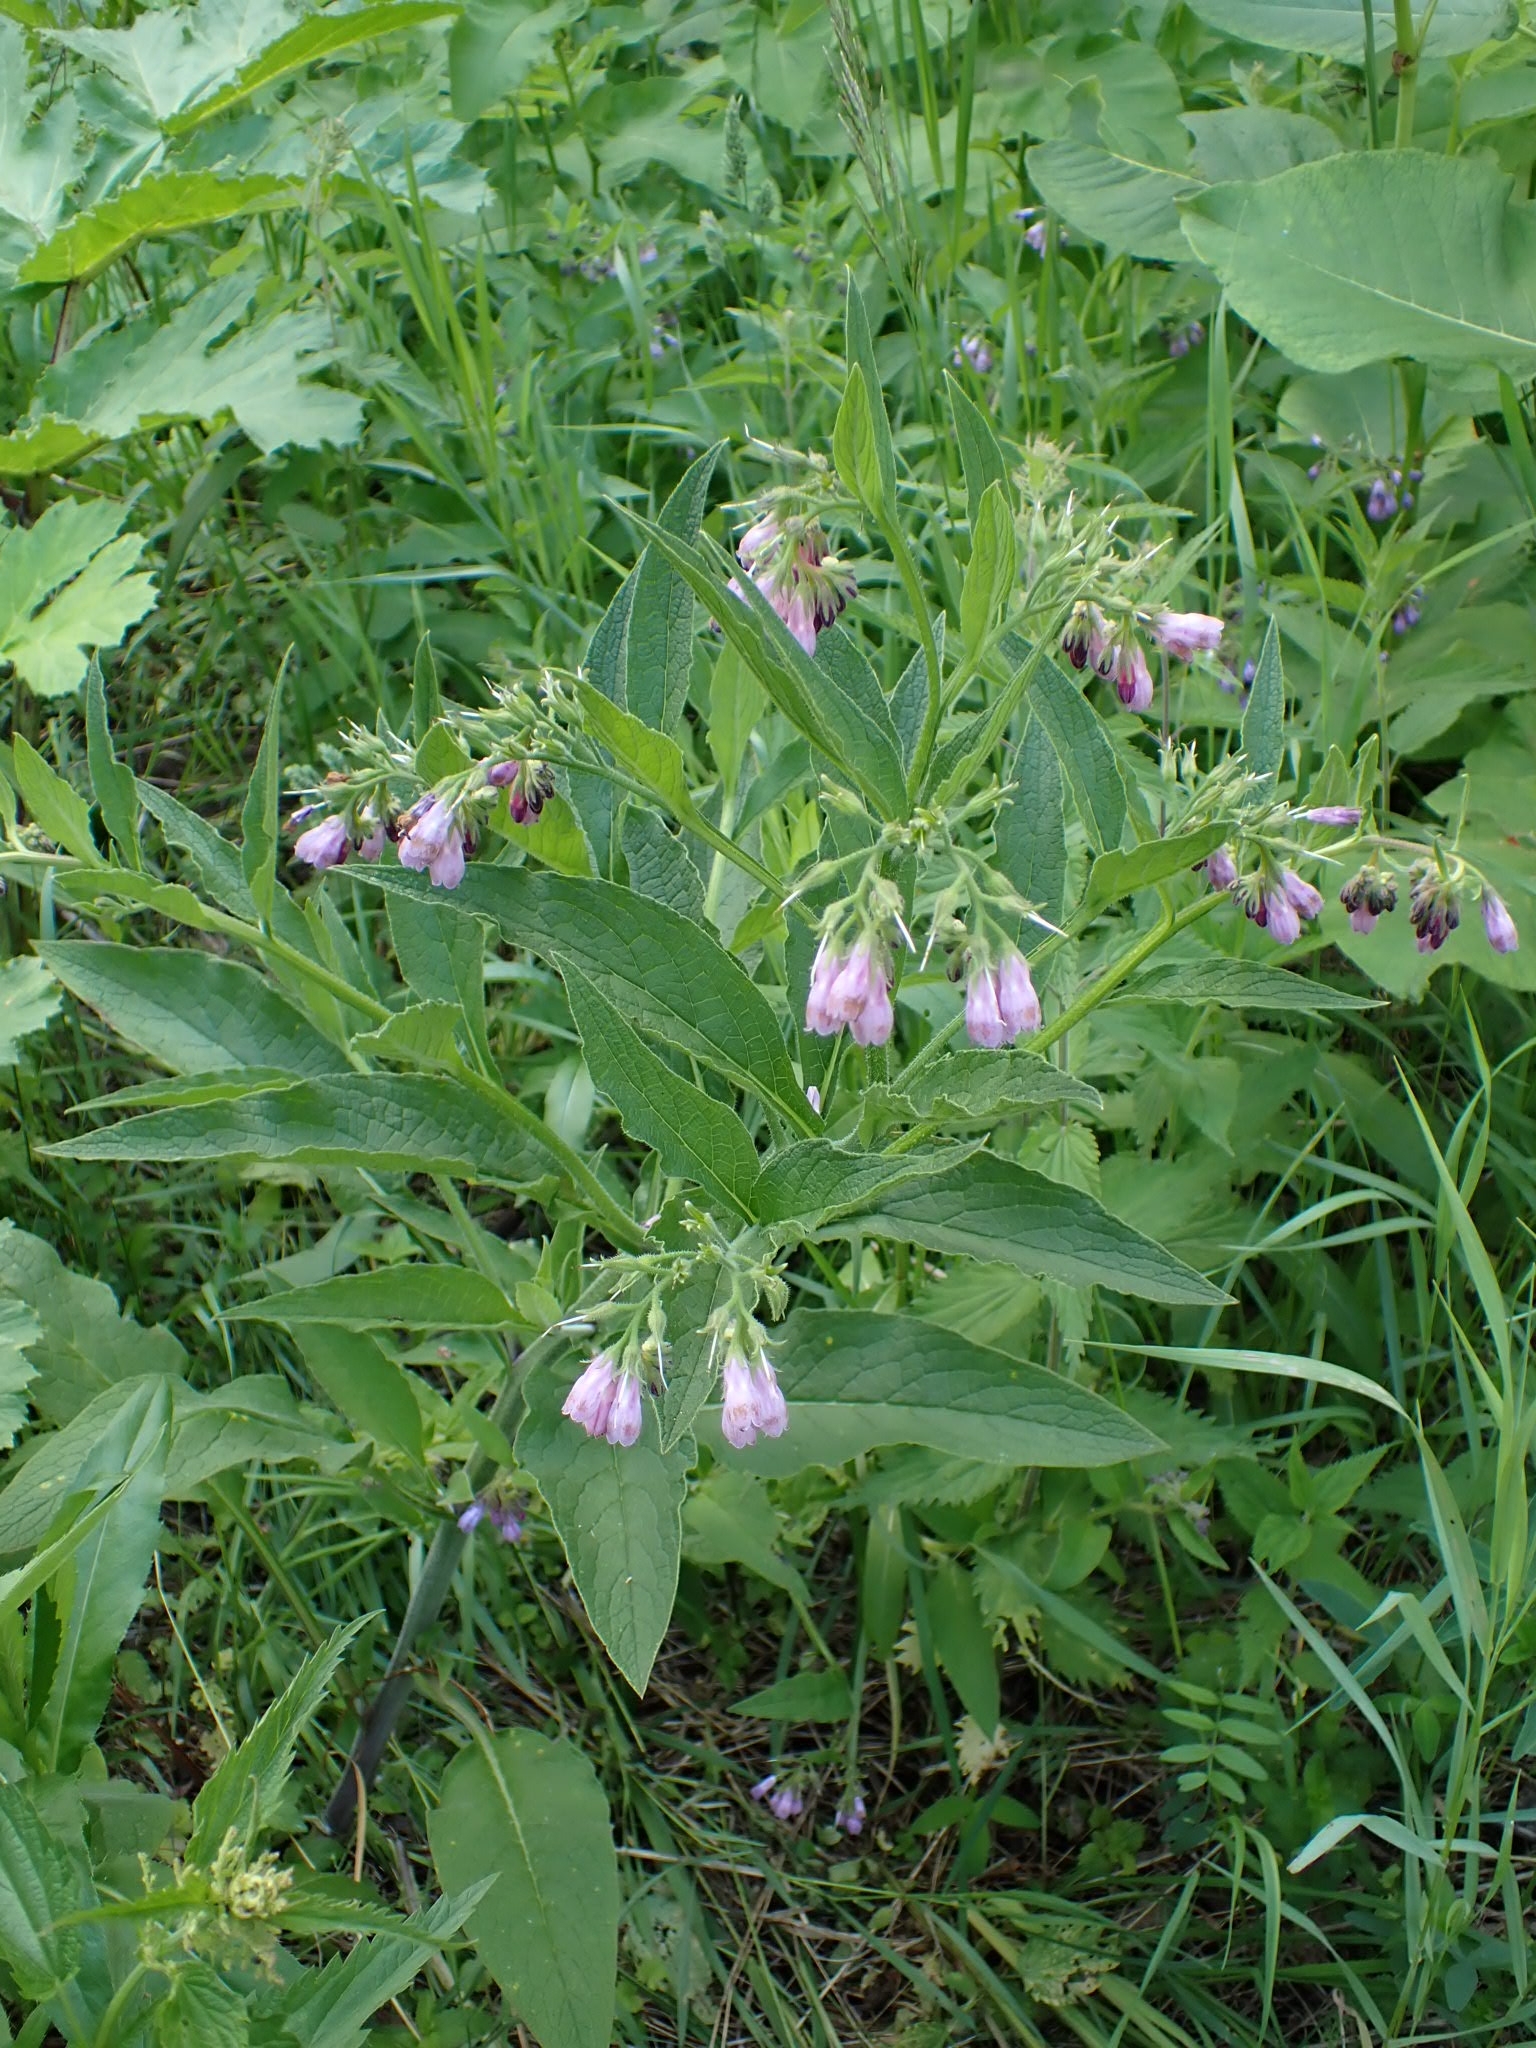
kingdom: Plantae
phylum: Tracheophyta
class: Magnoliopsida
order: Boraginales
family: Boraginaceae
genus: Symphytum
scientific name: Symphytum officinale
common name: Common comfrey
